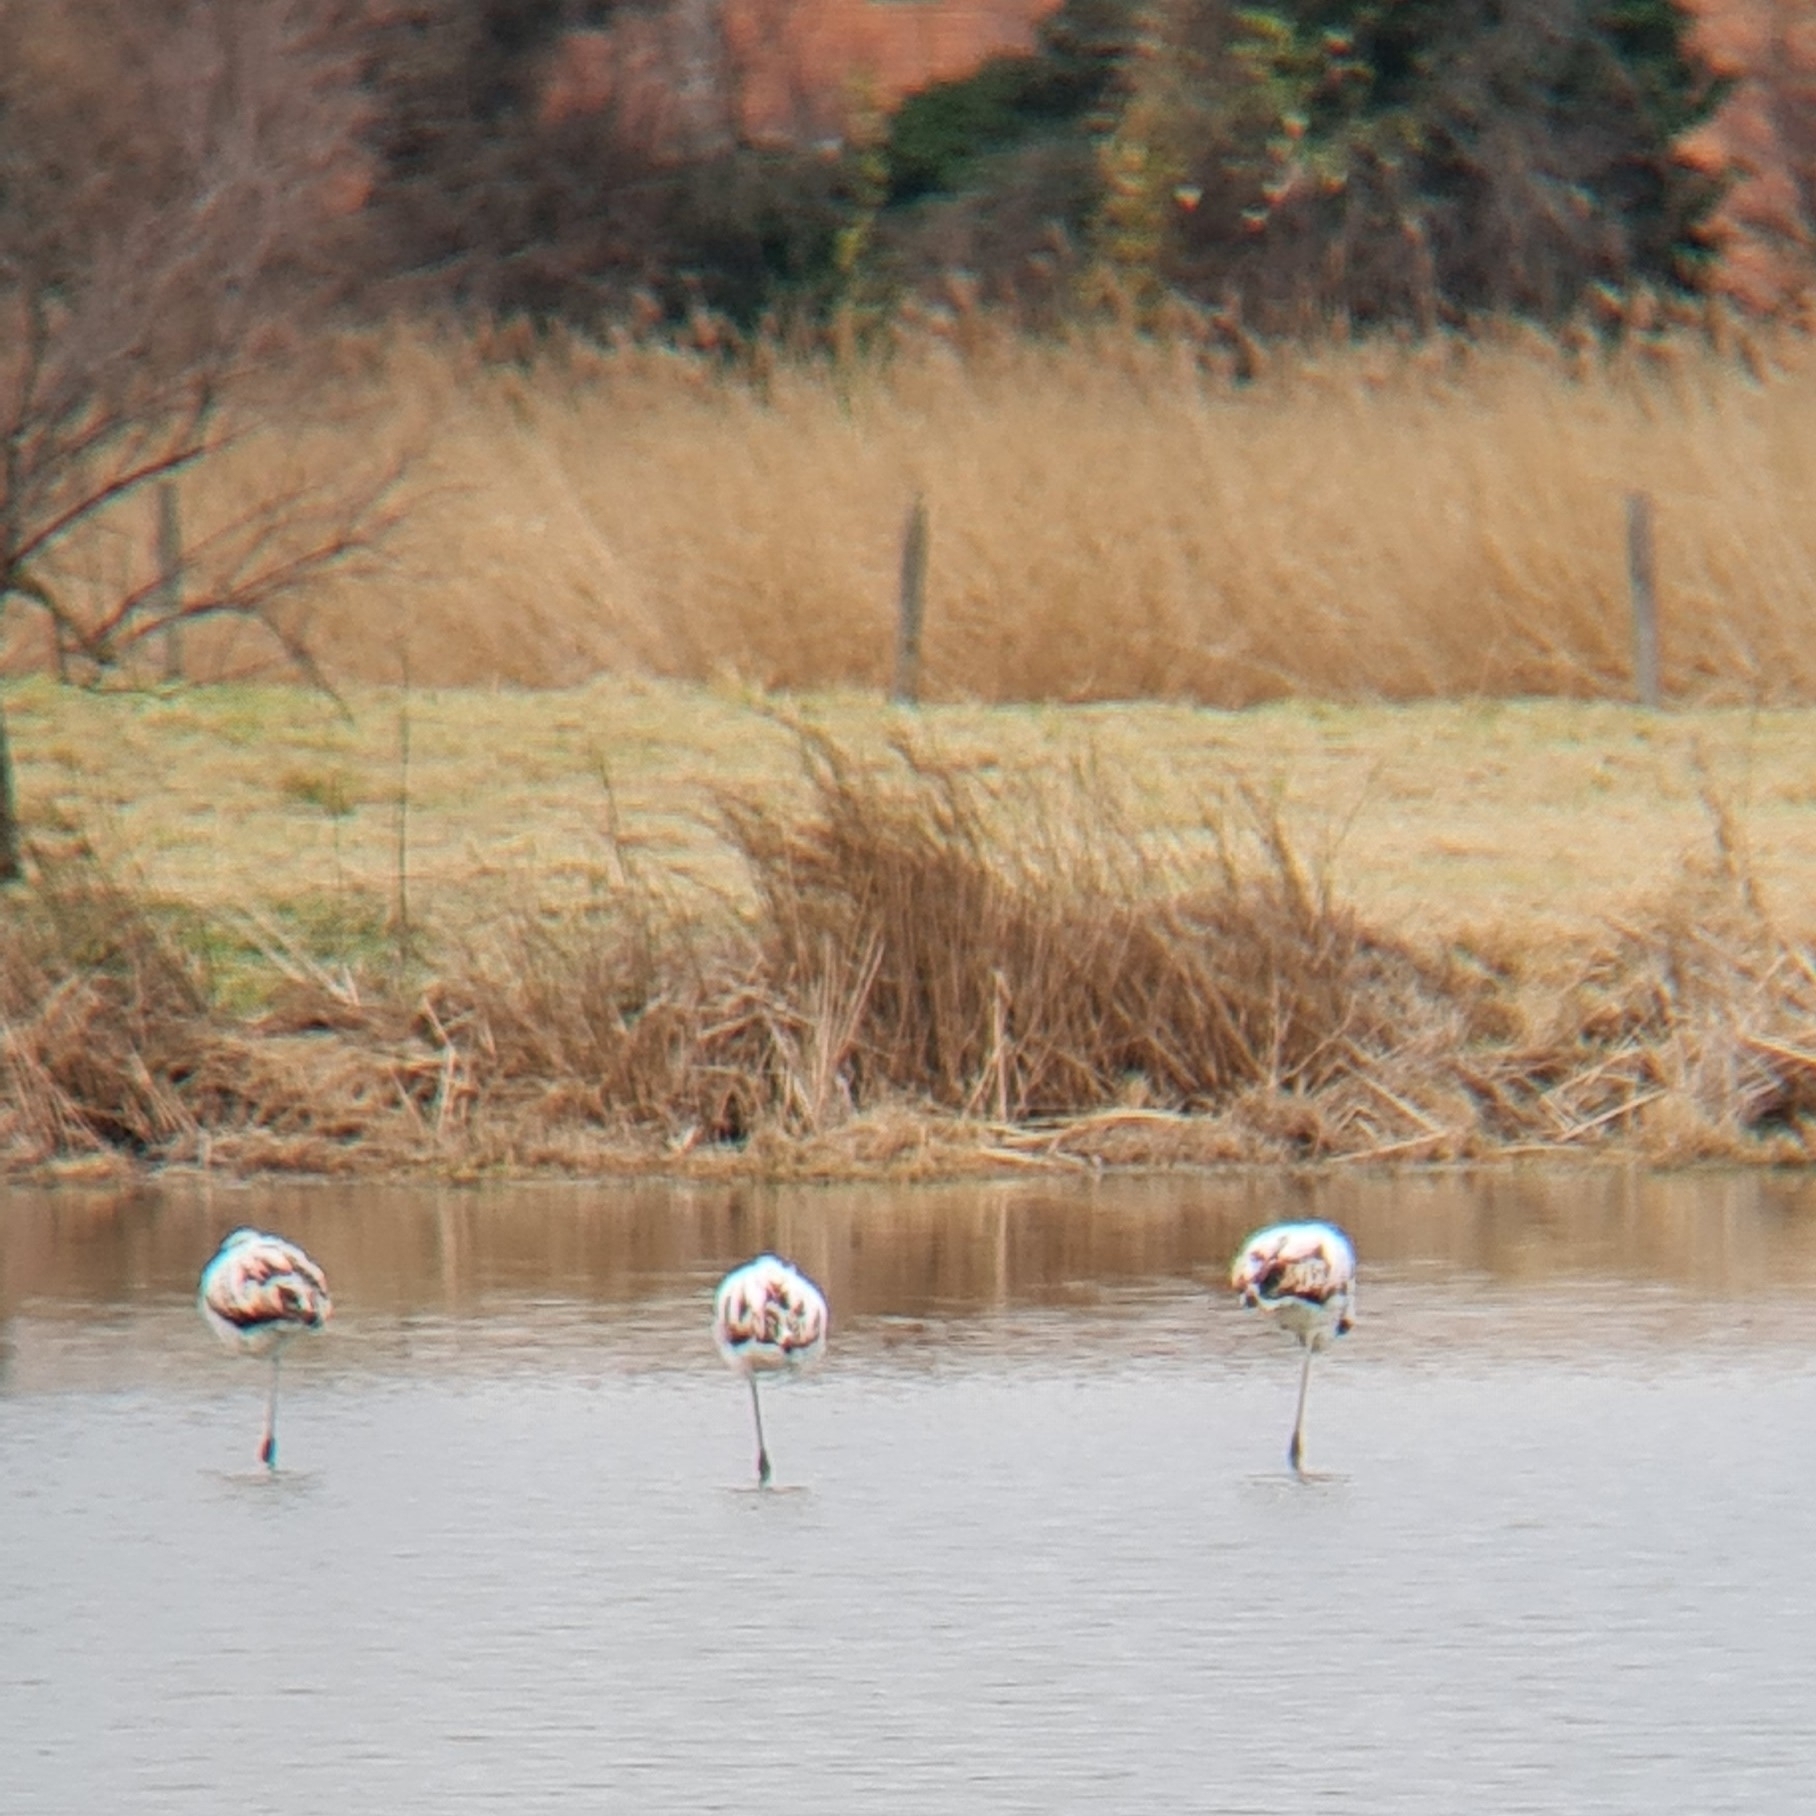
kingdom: Animalia
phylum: Chordata
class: Aves
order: Phoenicopteriformes
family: Phoenicopteridae
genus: Phoenicopterus
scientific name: Phoenicopterus roseus
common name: Greater flamingo
